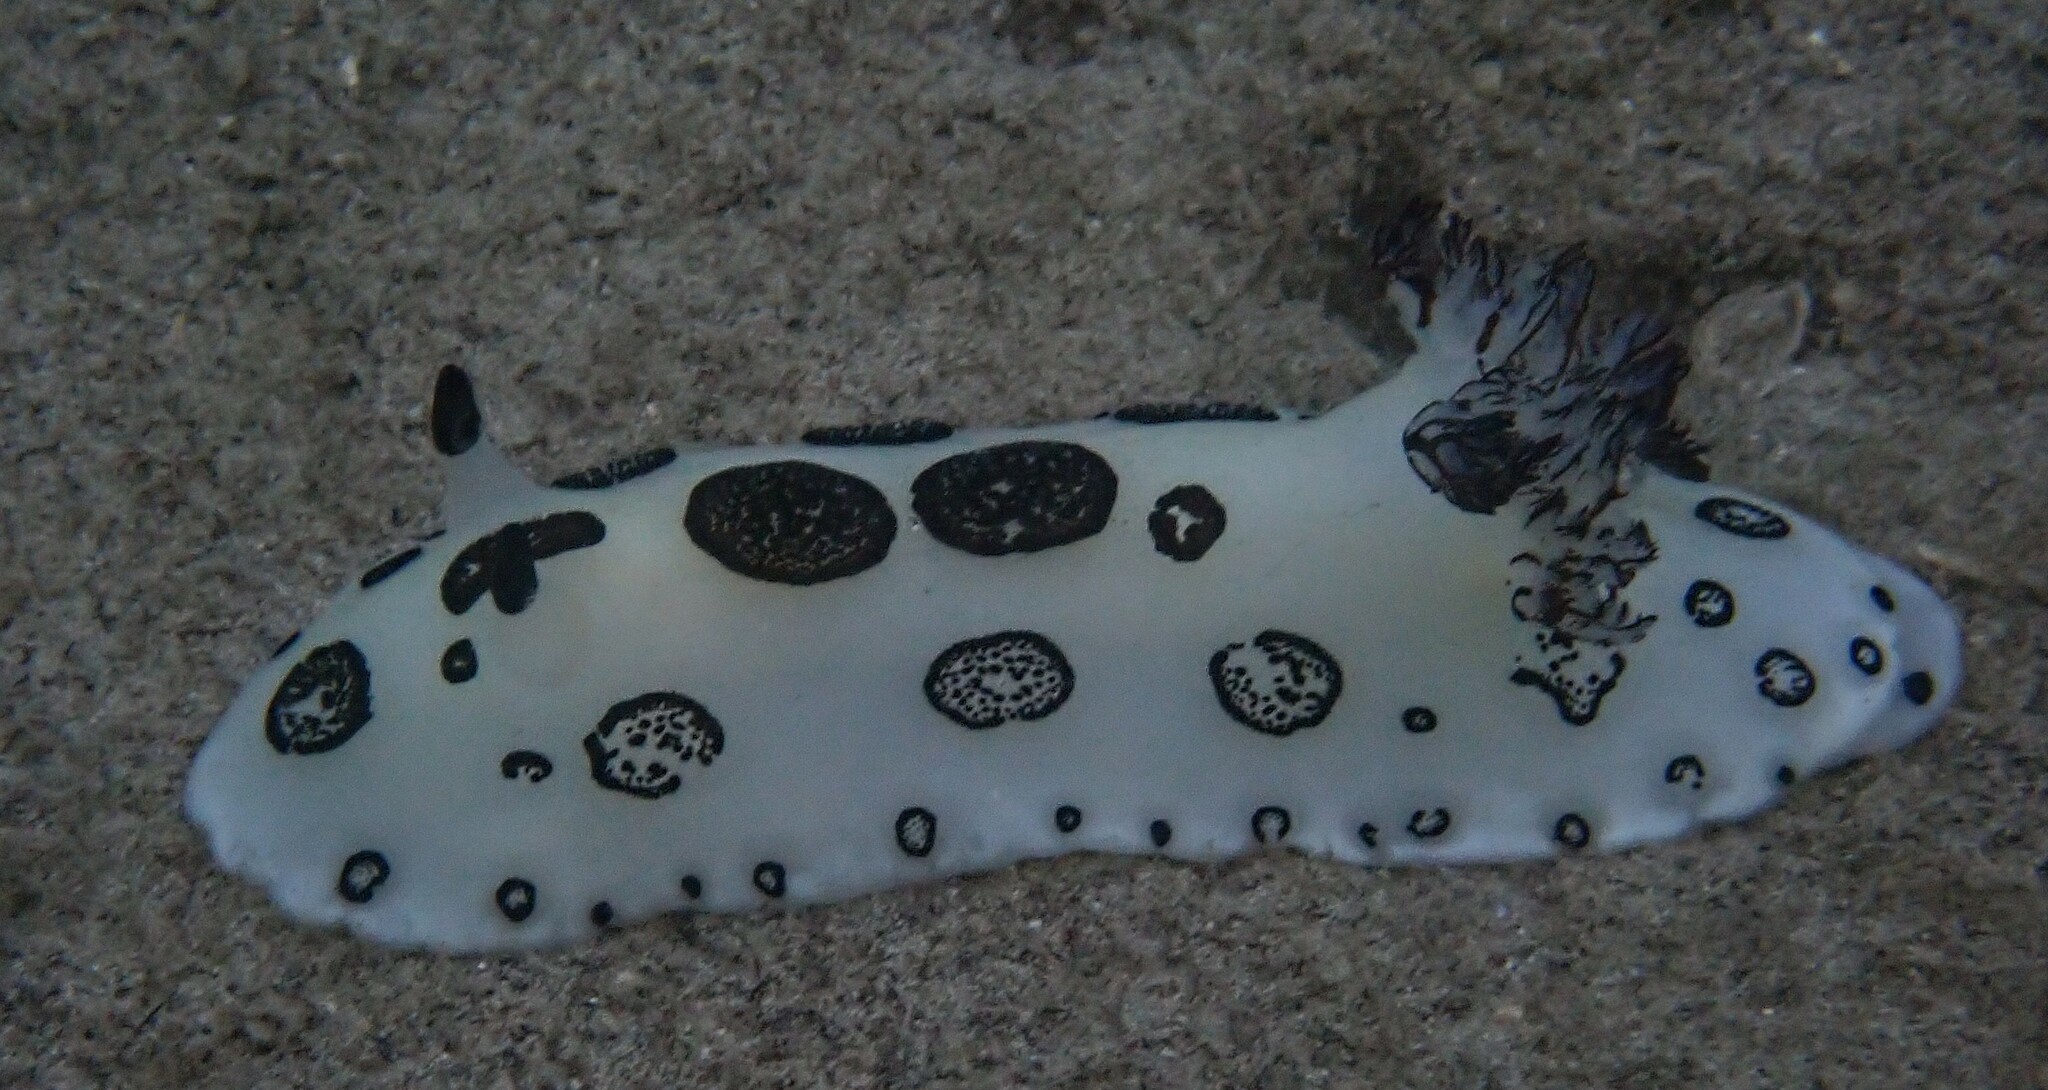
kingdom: Animalia
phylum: Mollusca
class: Gastropoda
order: Nudibranchia
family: Discodorididae
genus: Jorunna
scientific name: Jorunna funebris
